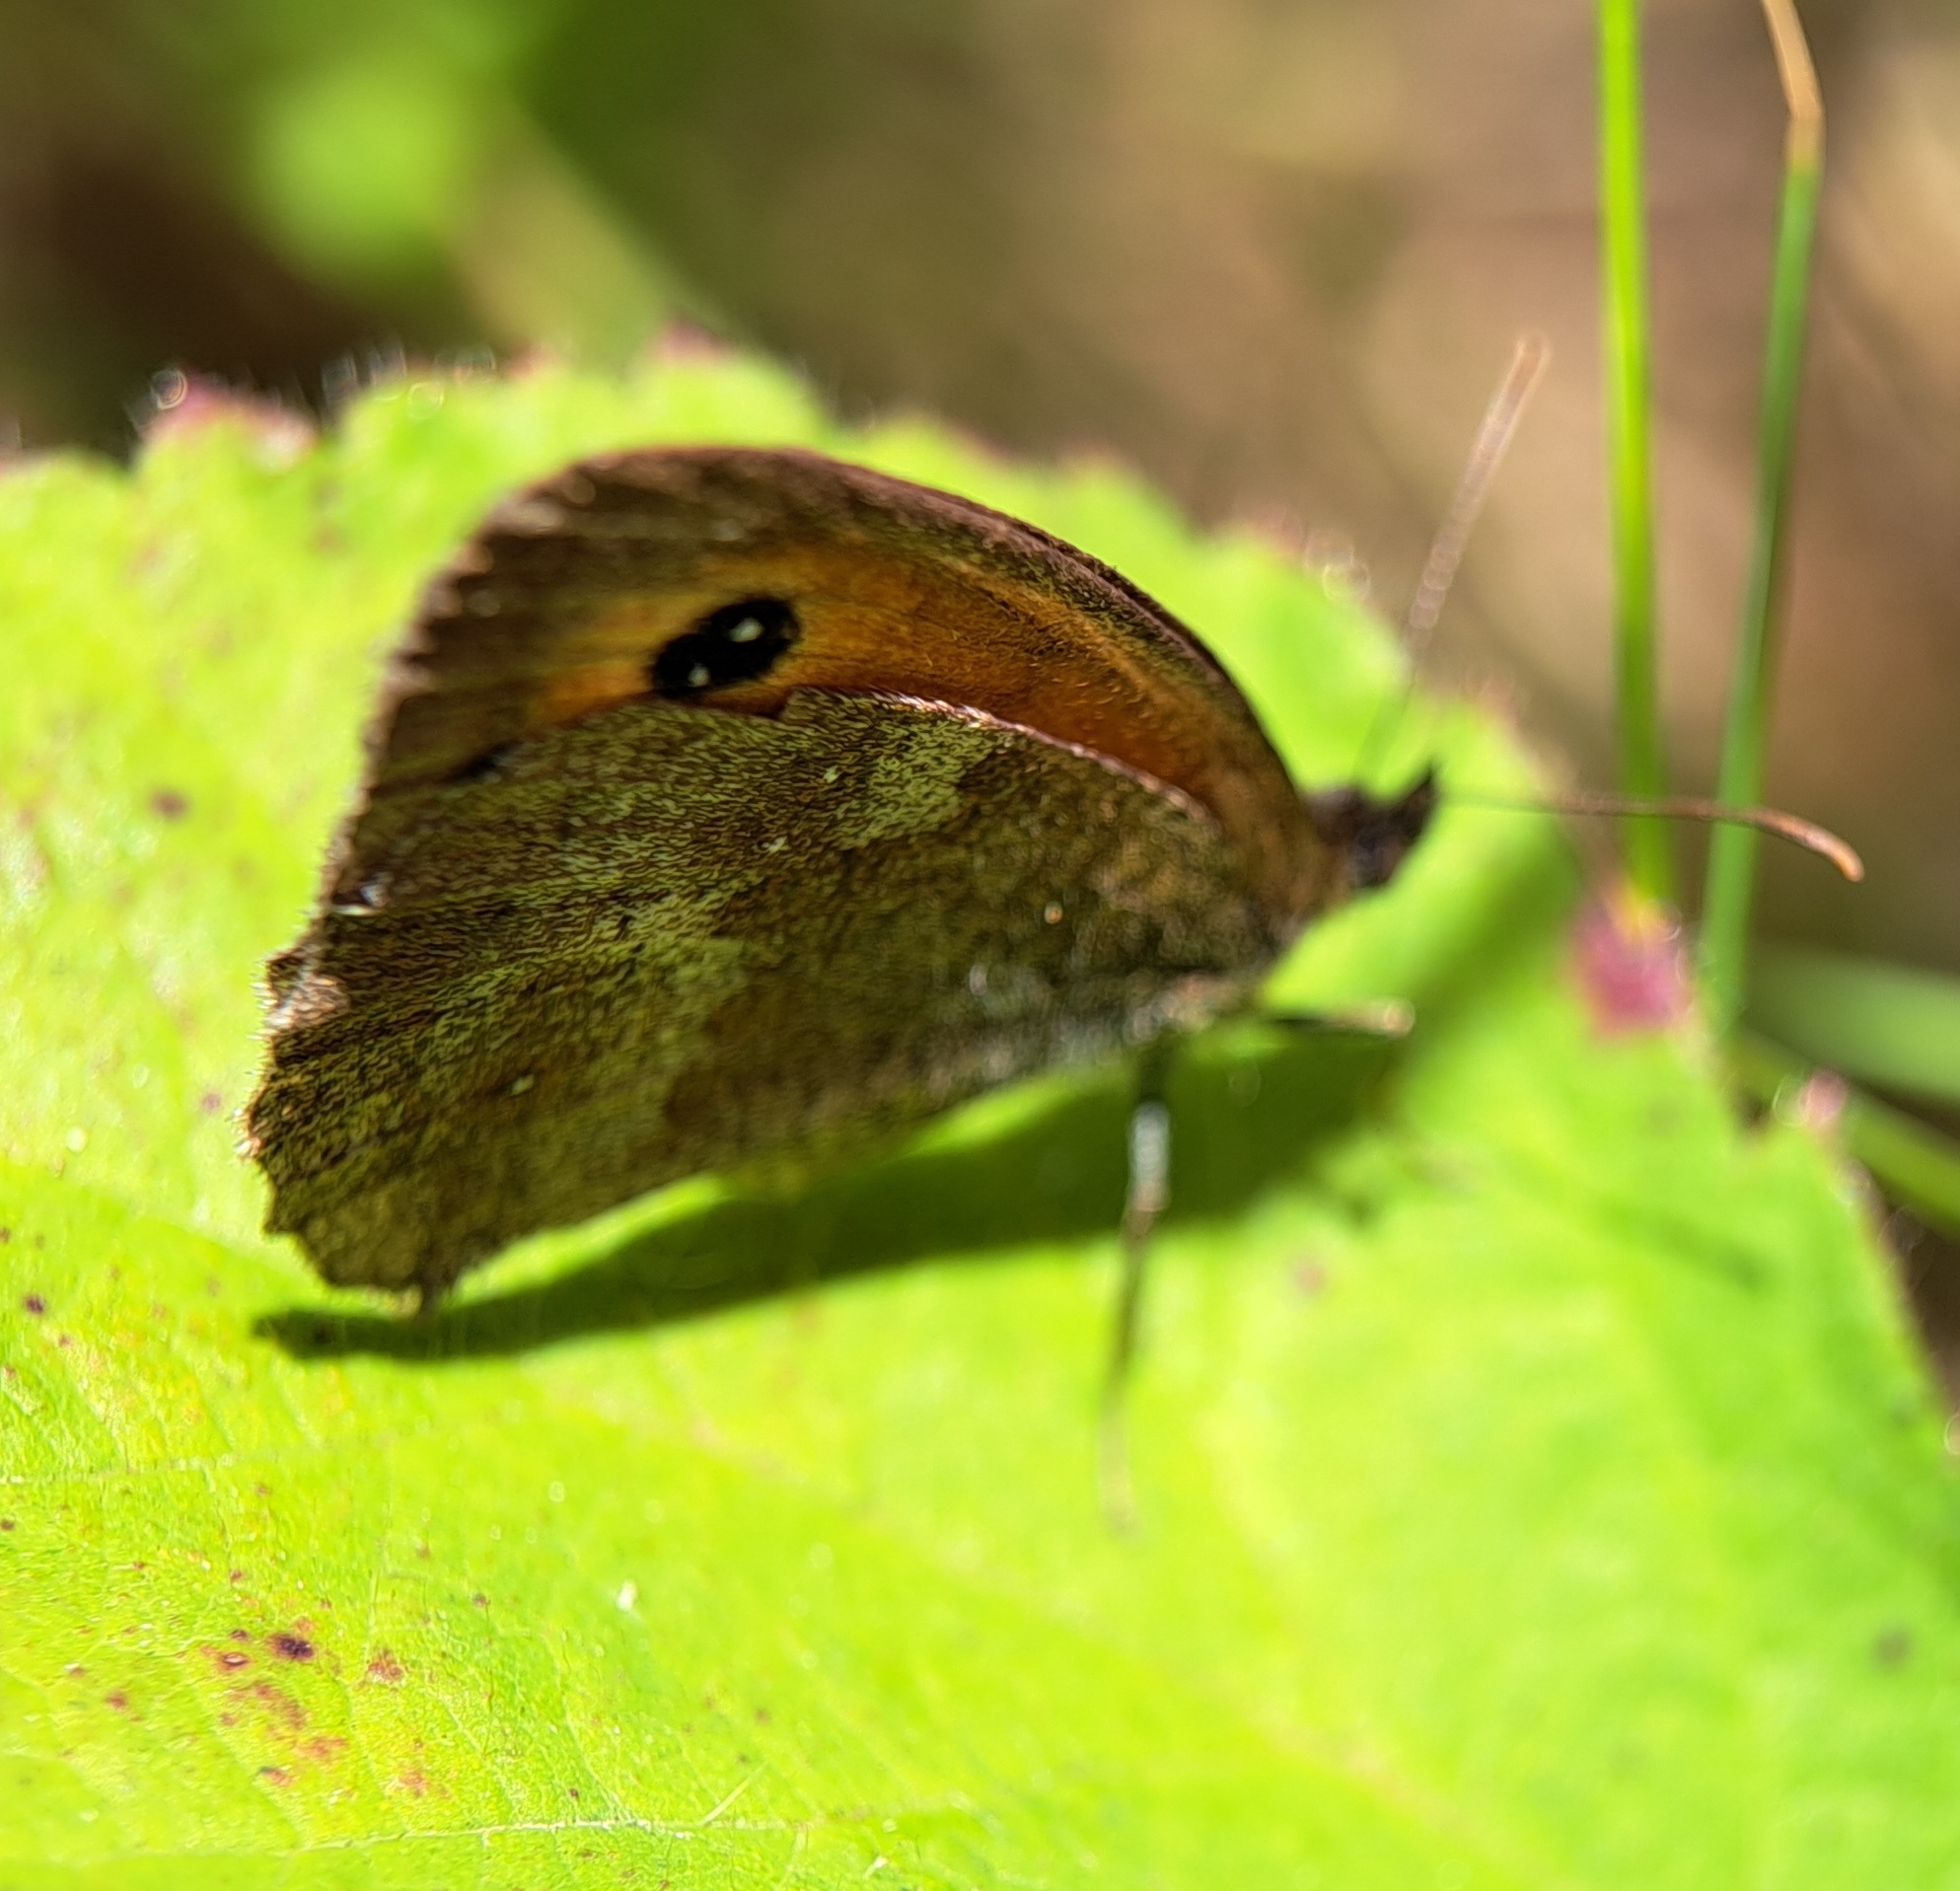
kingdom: Animalia
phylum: Arthropoda
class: Insecta
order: Lepidoptera
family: Nymphalidae
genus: Pyronia
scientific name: Pyronia tithonus
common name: Gatekeeper
